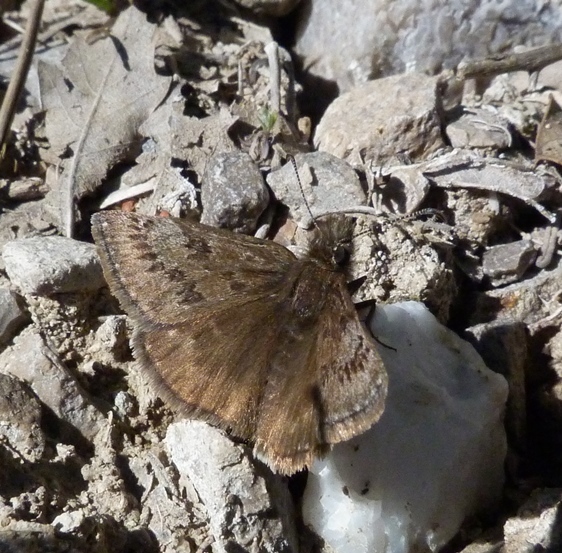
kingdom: Animalia
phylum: Arthropoda
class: Insecta
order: Lepidoptera
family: Hesperiidae
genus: Erynnis
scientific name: Erynnis tages
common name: Dingy skipper
